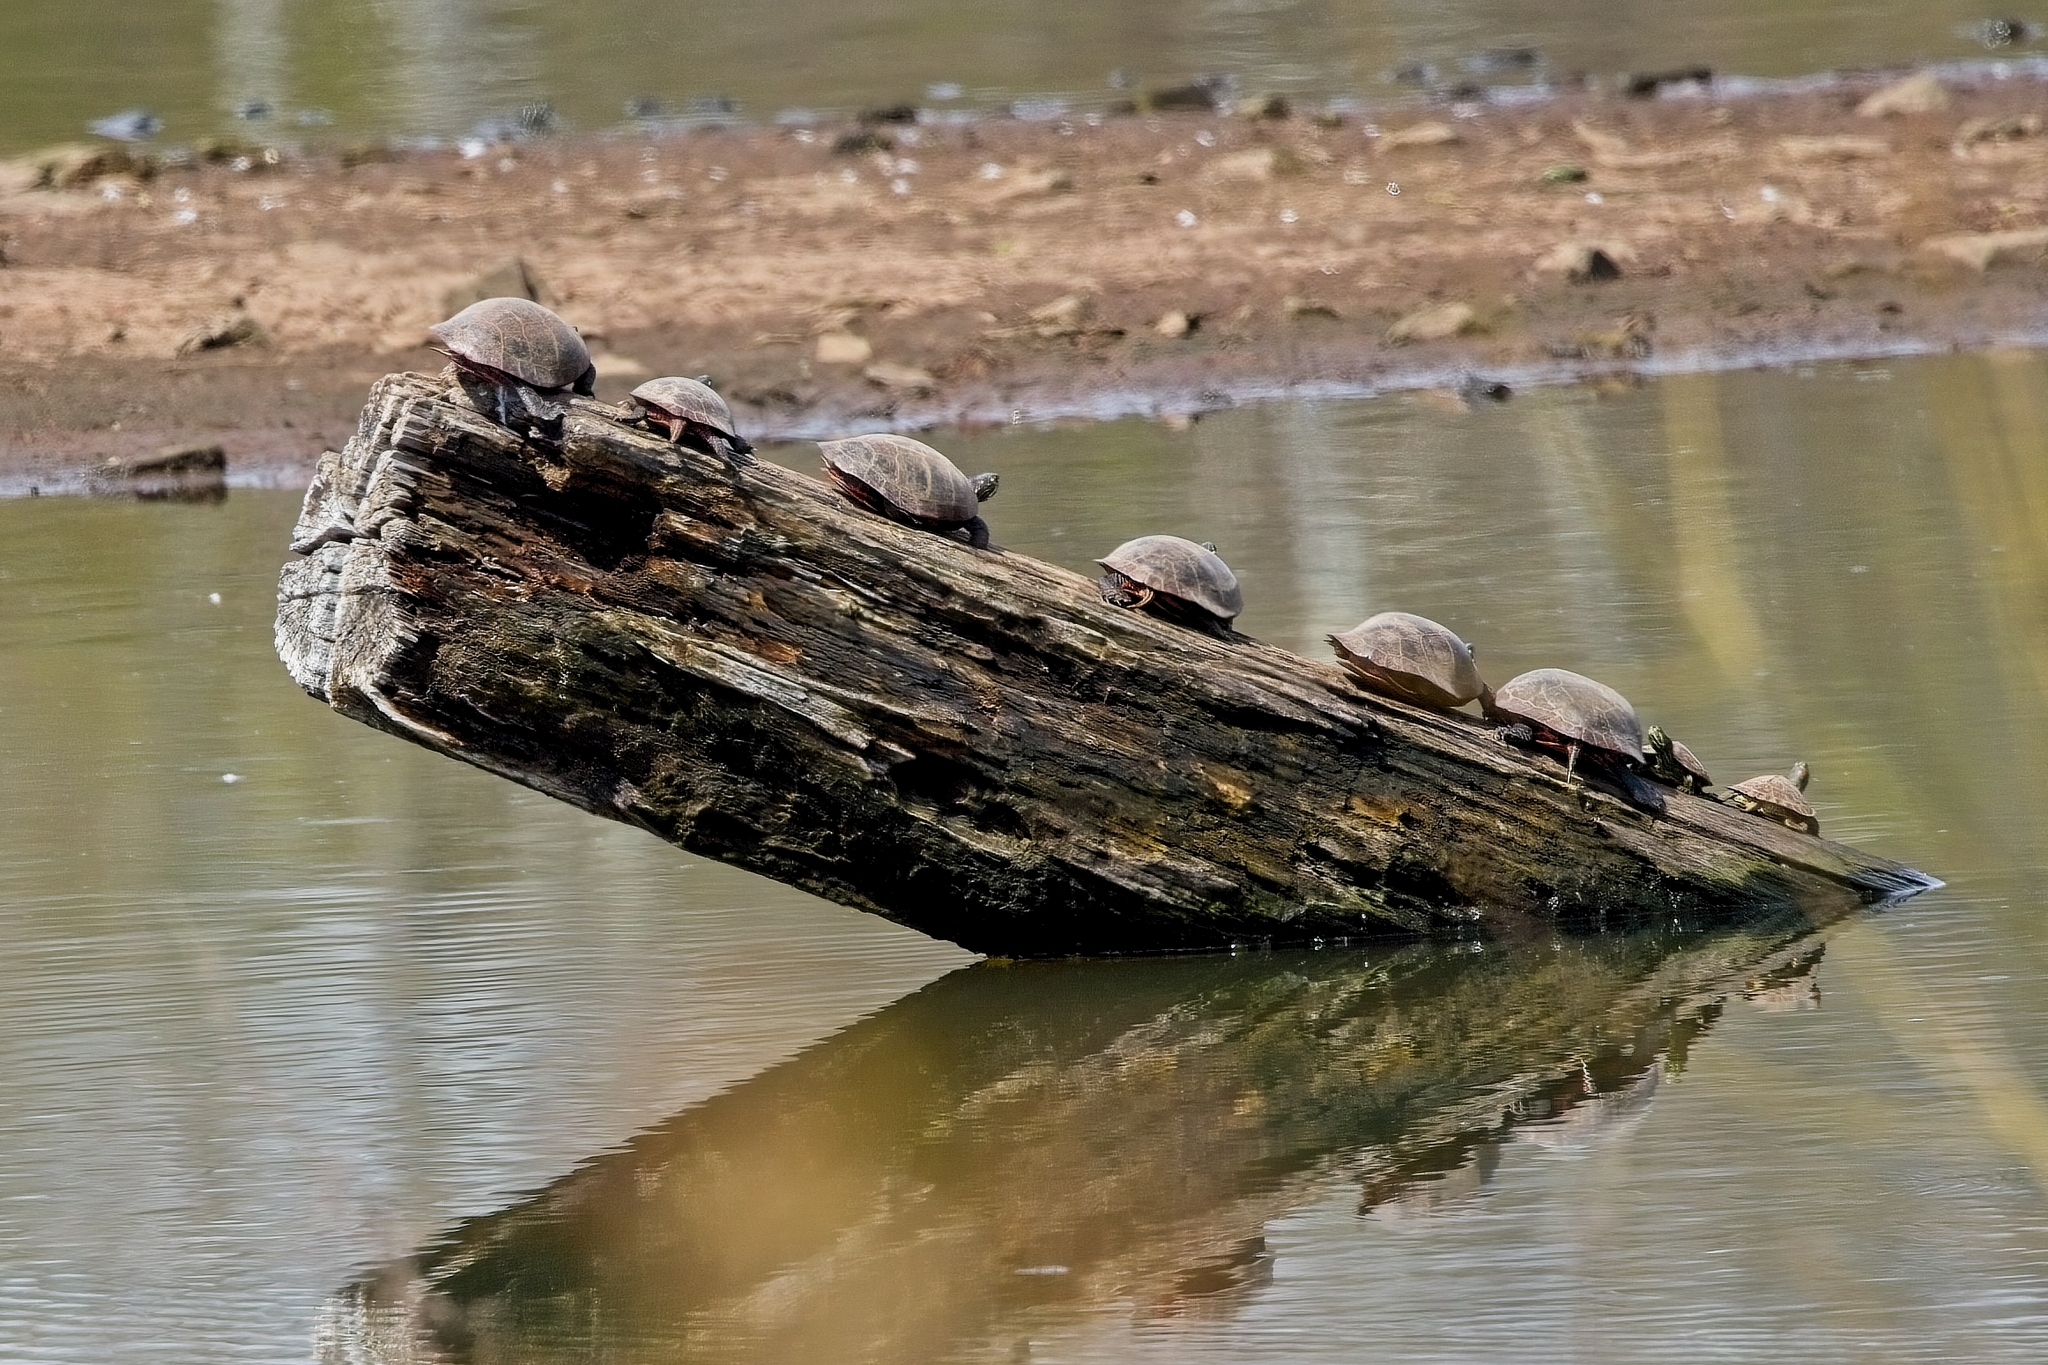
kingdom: Animalia
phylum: Chordata
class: Testudines
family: Emydidae
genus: Chrysemys
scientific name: Chrysemys picta
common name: Painted turtle
